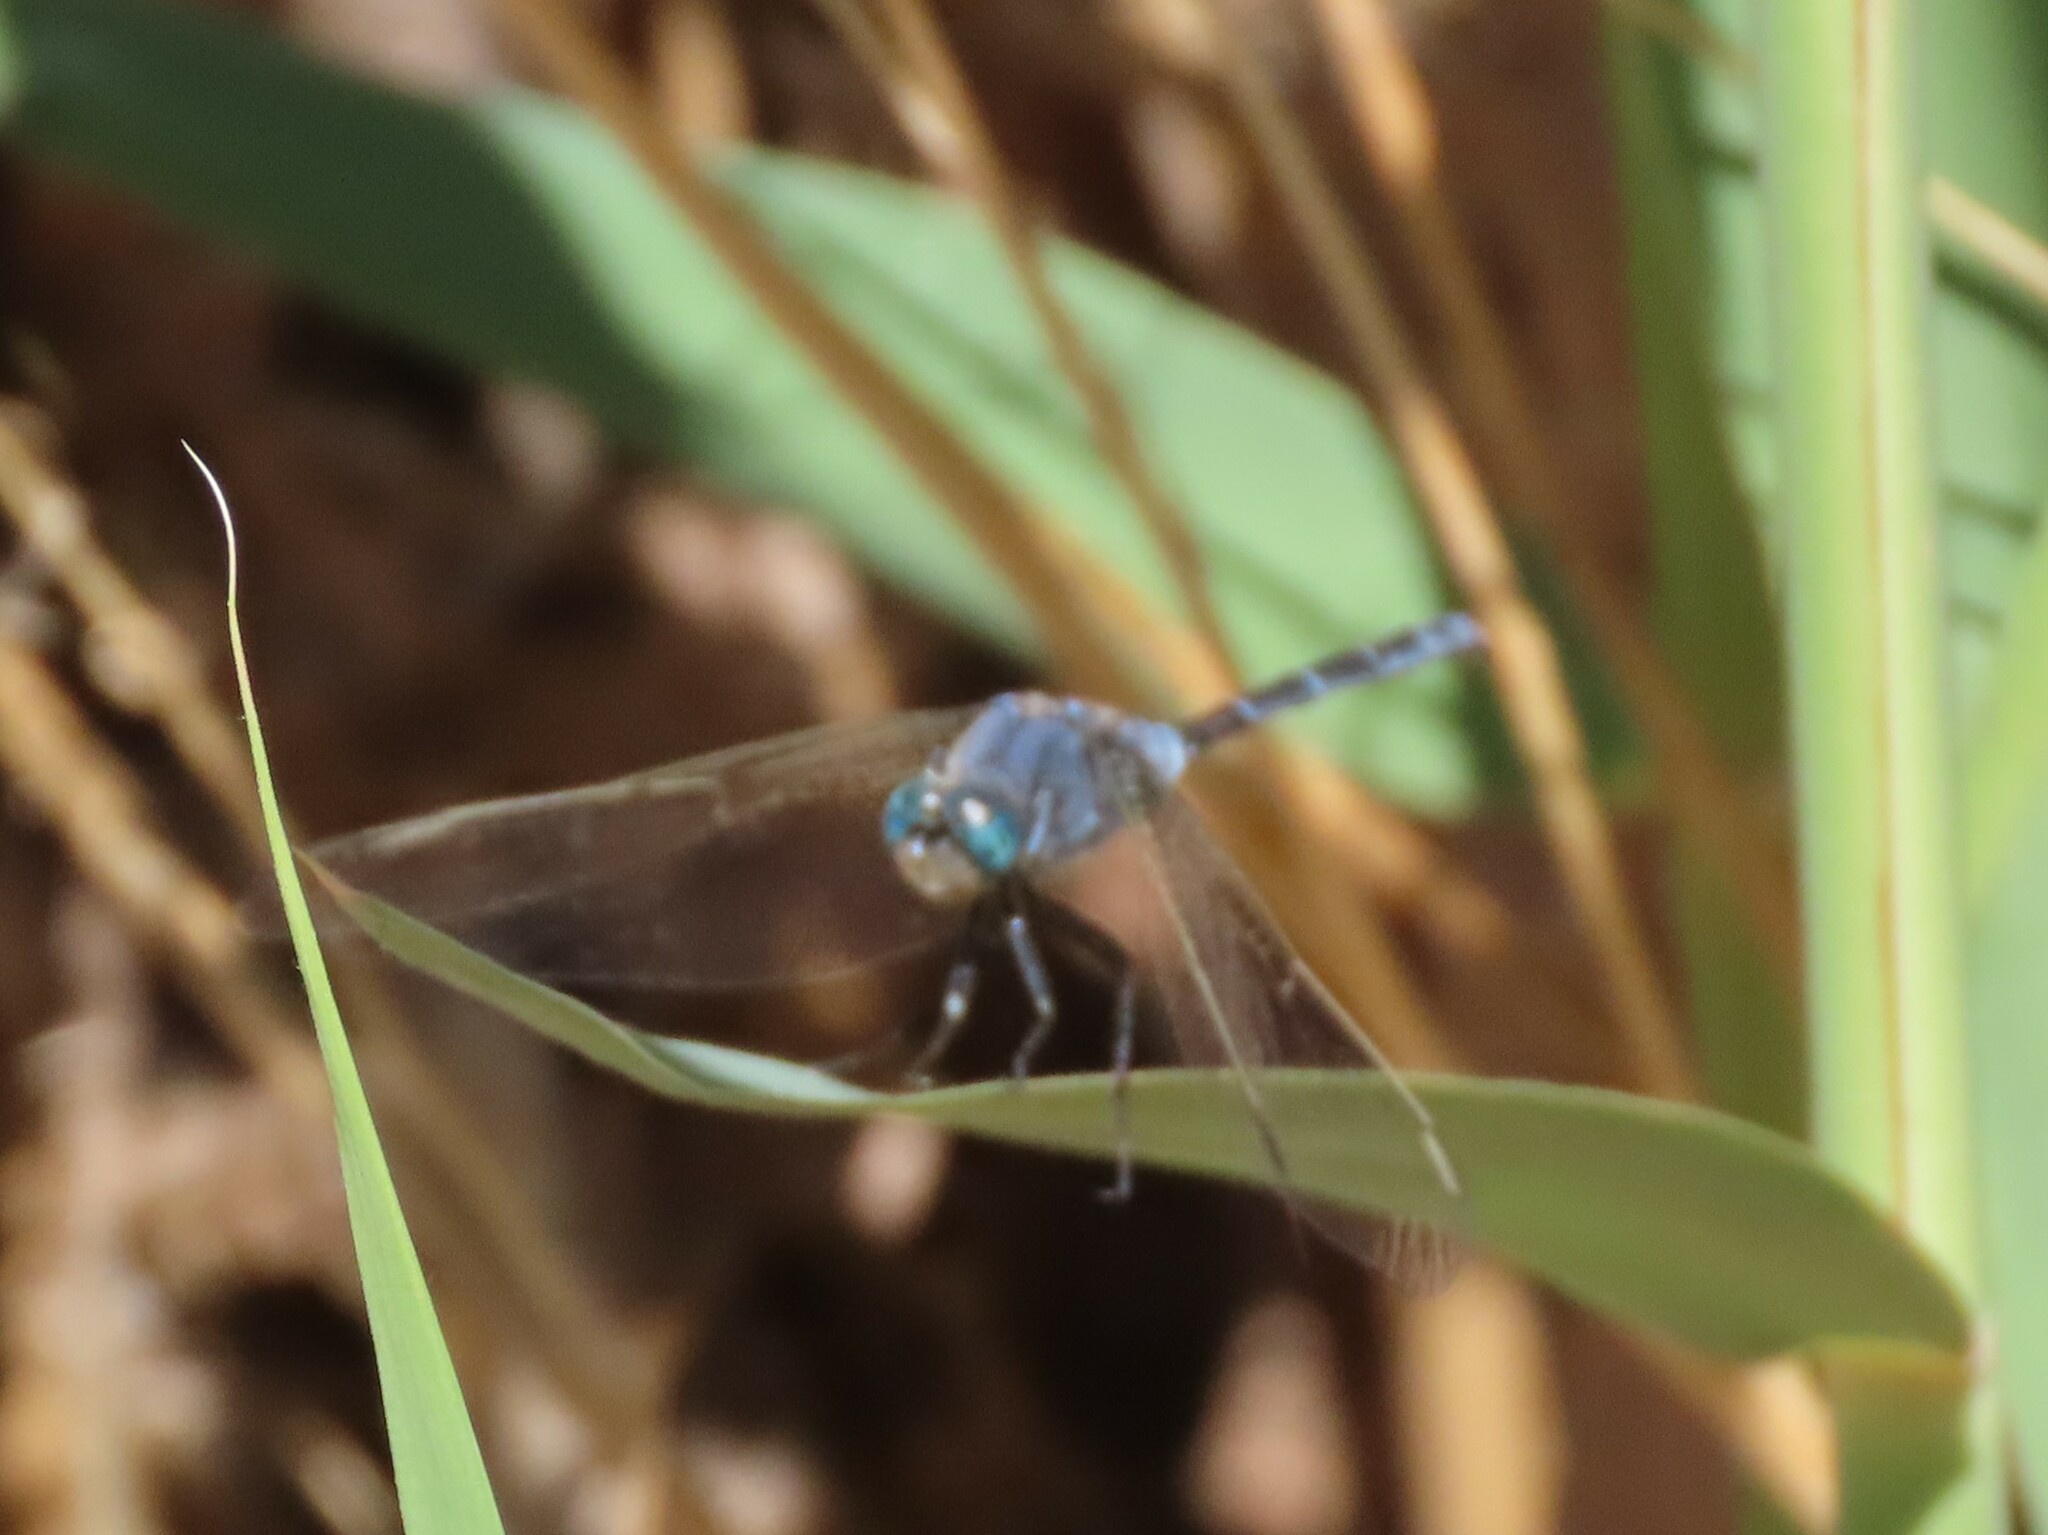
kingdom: Animalia
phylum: Arthropoda
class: Insecta
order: Odonata
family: Libellulidae
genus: Orthetrum
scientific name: Orthetrum trinacria
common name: Long skimmer
